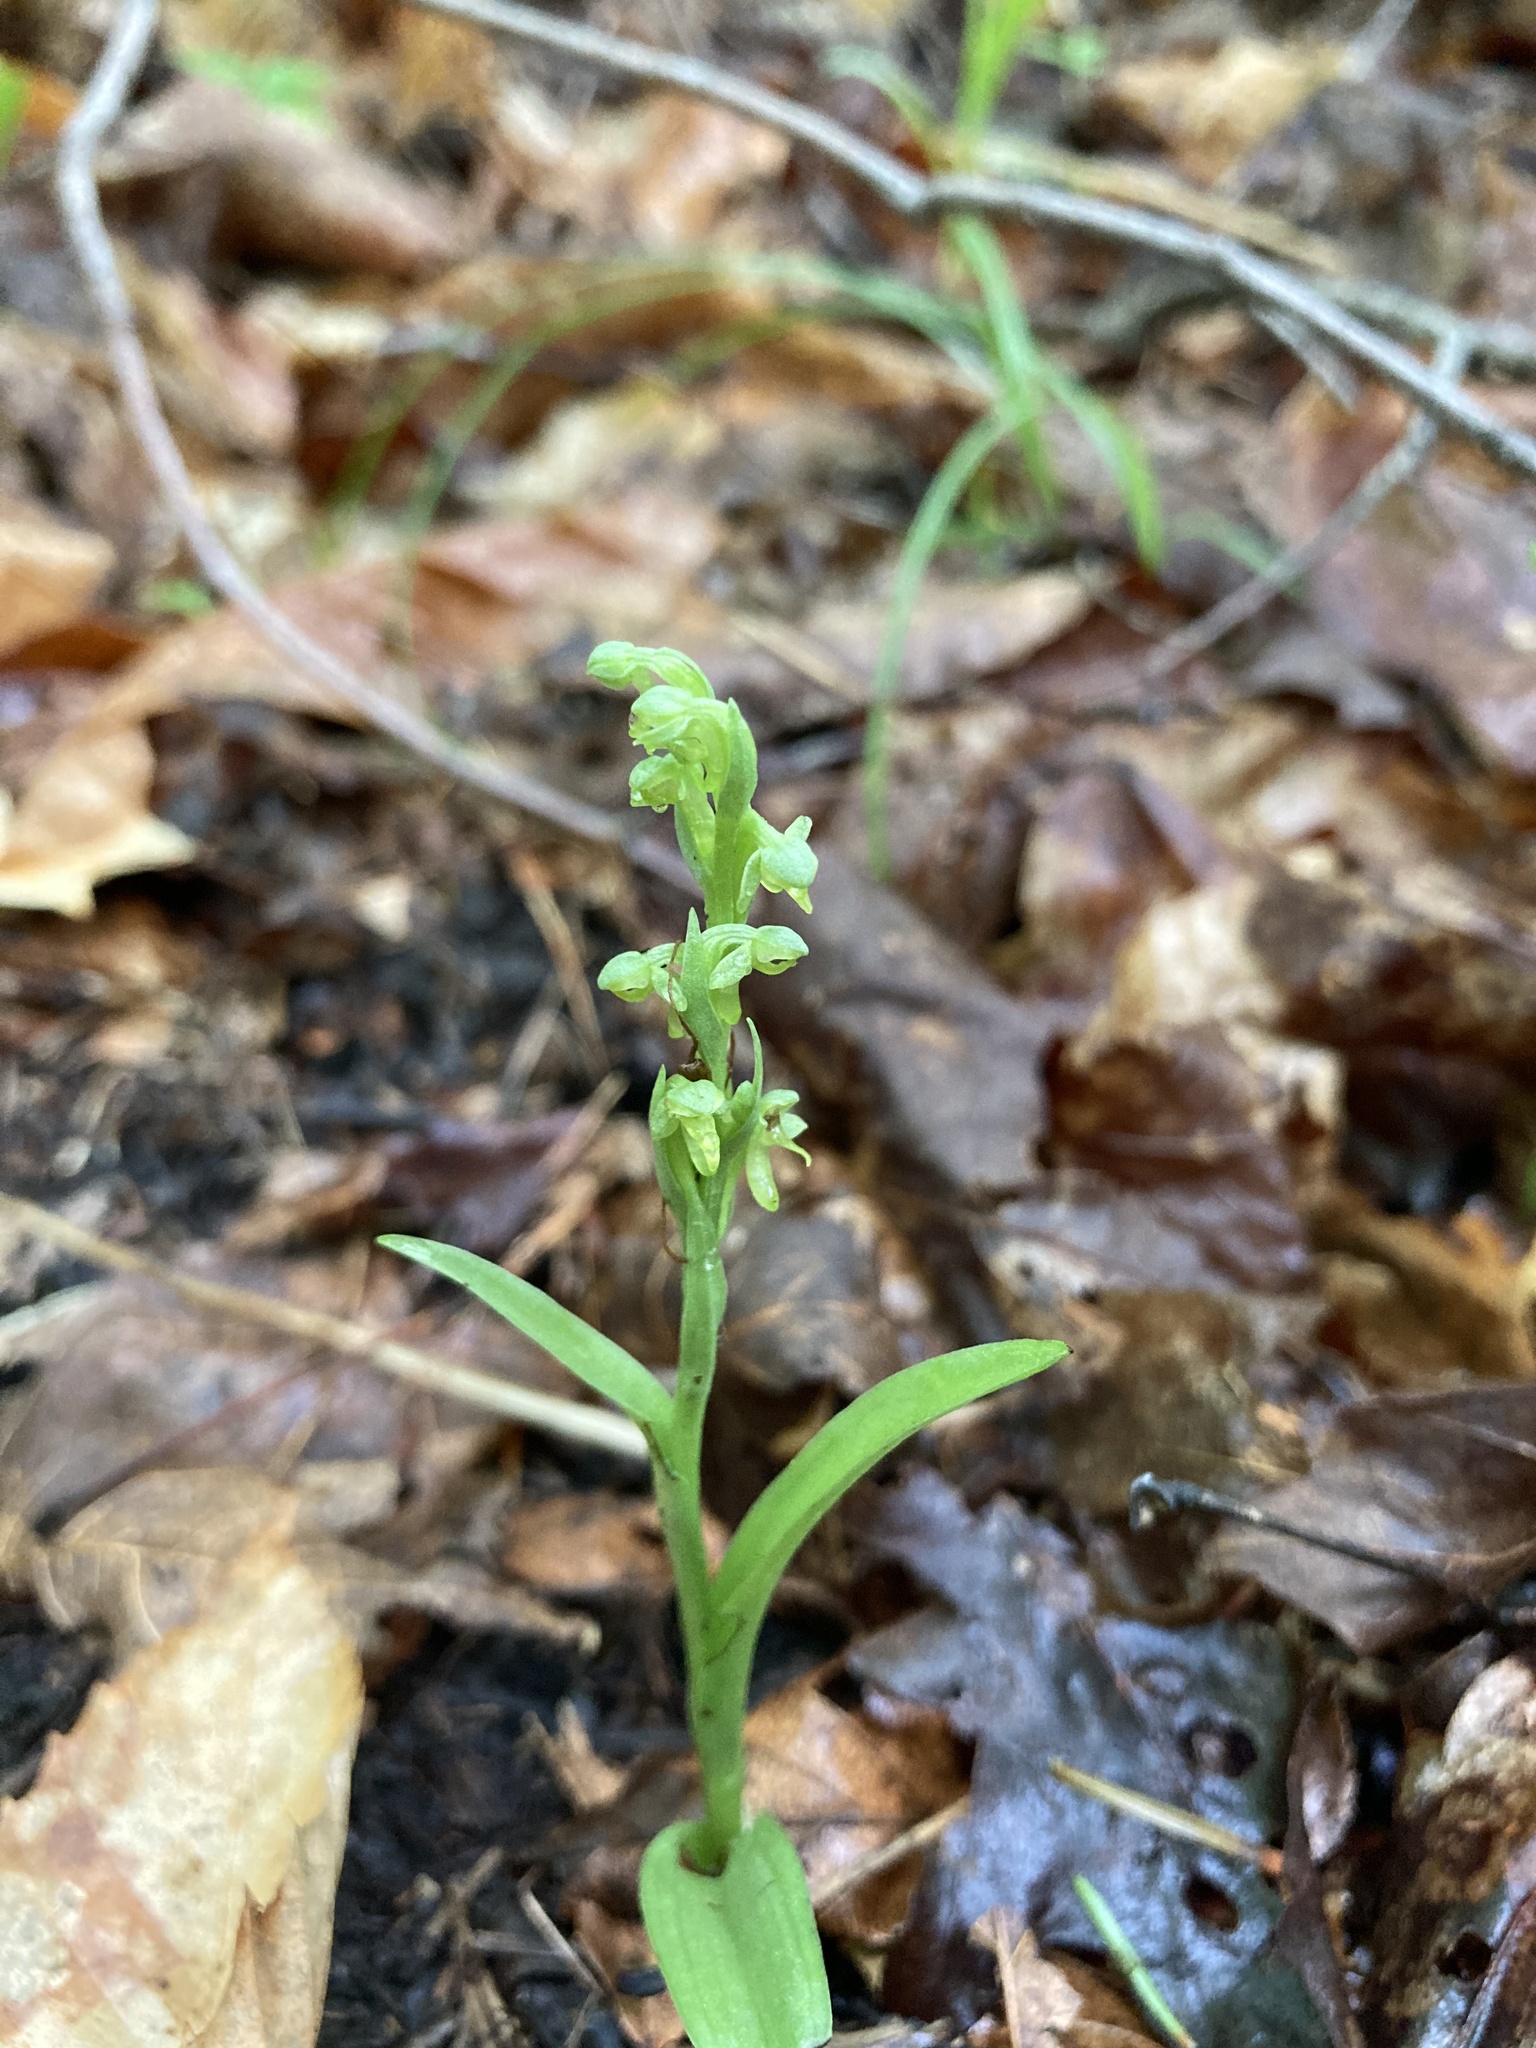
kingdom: Plantae
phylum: Tracheophyta
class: Liliopsida
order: Asparagales
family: Orchidaceae
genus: Platanthera
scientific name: Platanthera aquilonis
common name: Northern green orchid
